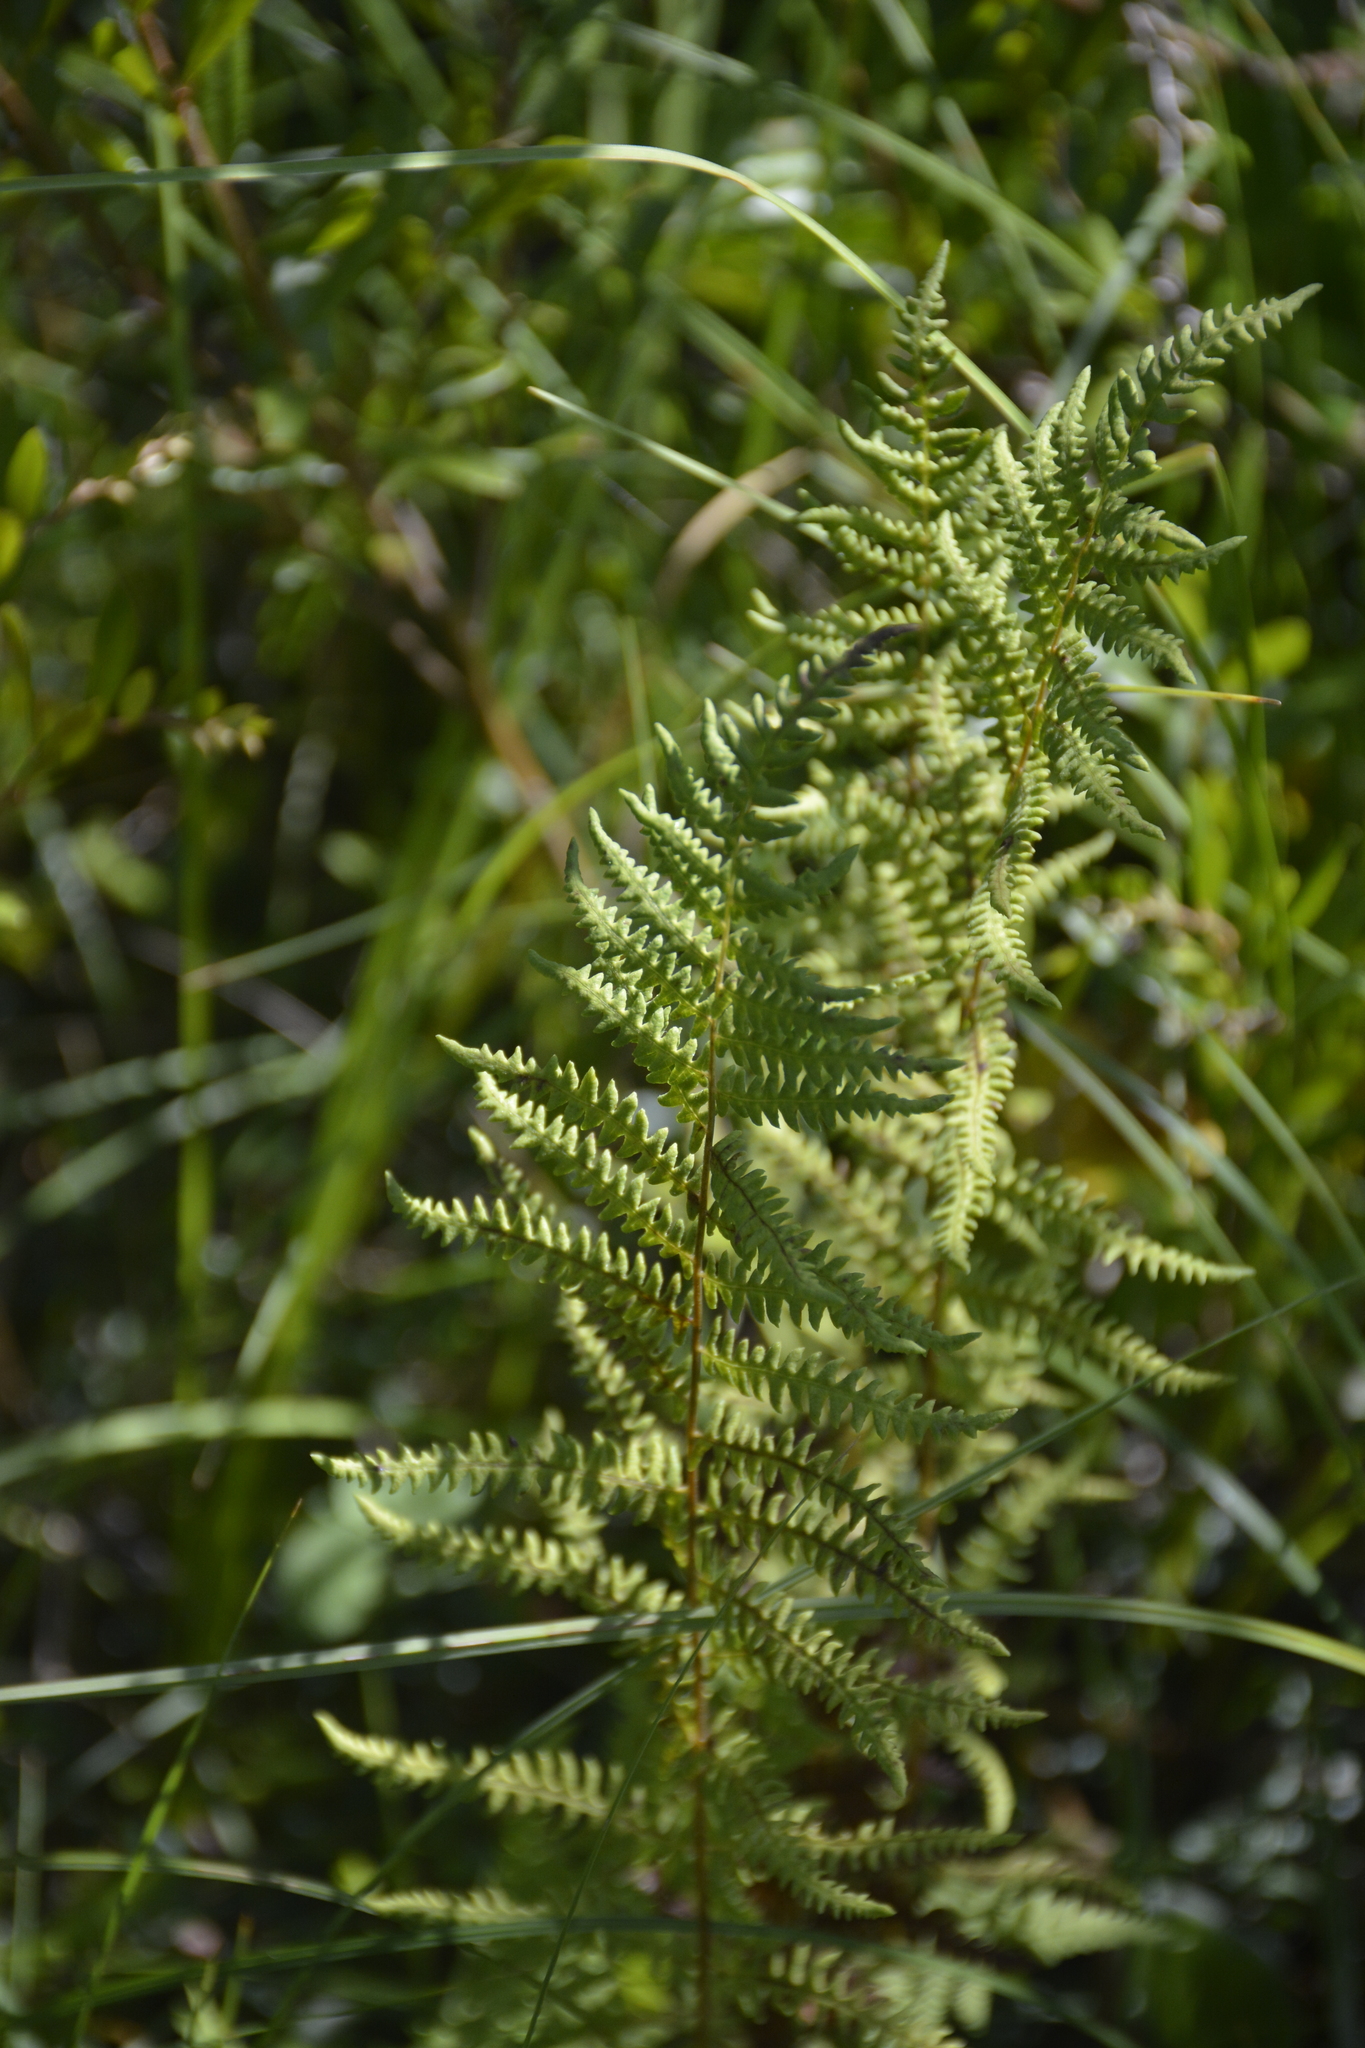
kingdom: Plantae
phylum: Tracheophyta
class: Polypodiopsida
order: Polypodiales
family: Thelypteridaceae
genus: Thelypteris
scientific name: Thelypteris palustris
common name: Marsh fern
